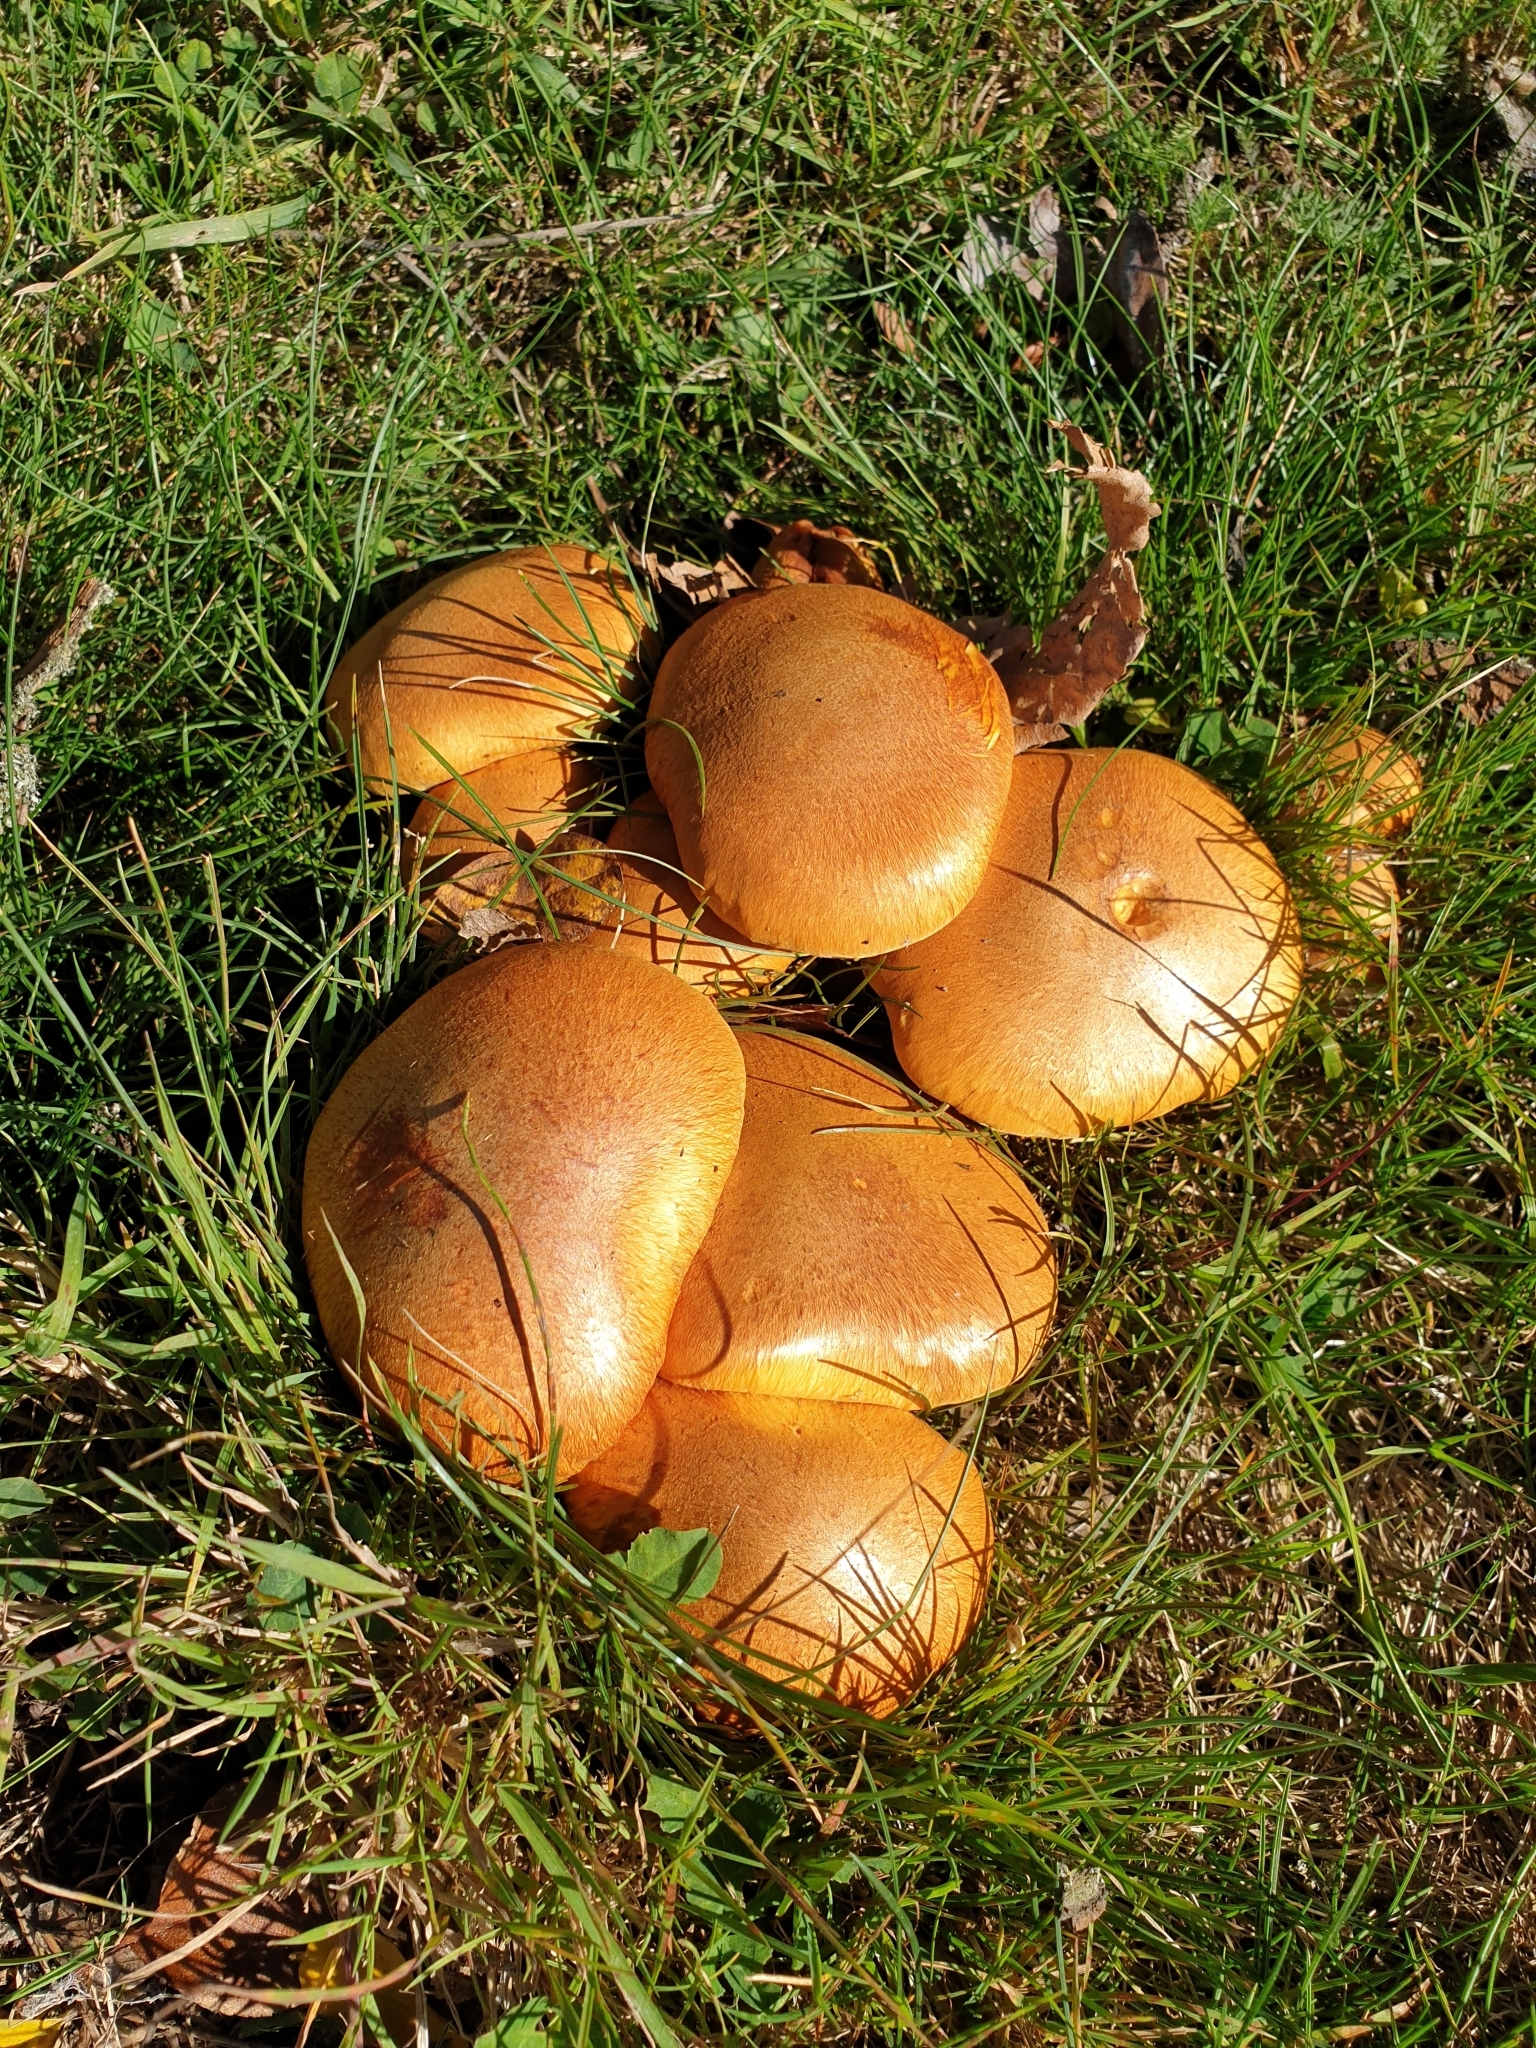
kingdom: Fungi
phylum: Basidiomycota
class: Agaricomycetes
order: Agaricales
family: Hymenogastraceae
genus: Gymnopilus
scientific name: Gymnopilus junonius
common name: Spectacular rustgill
